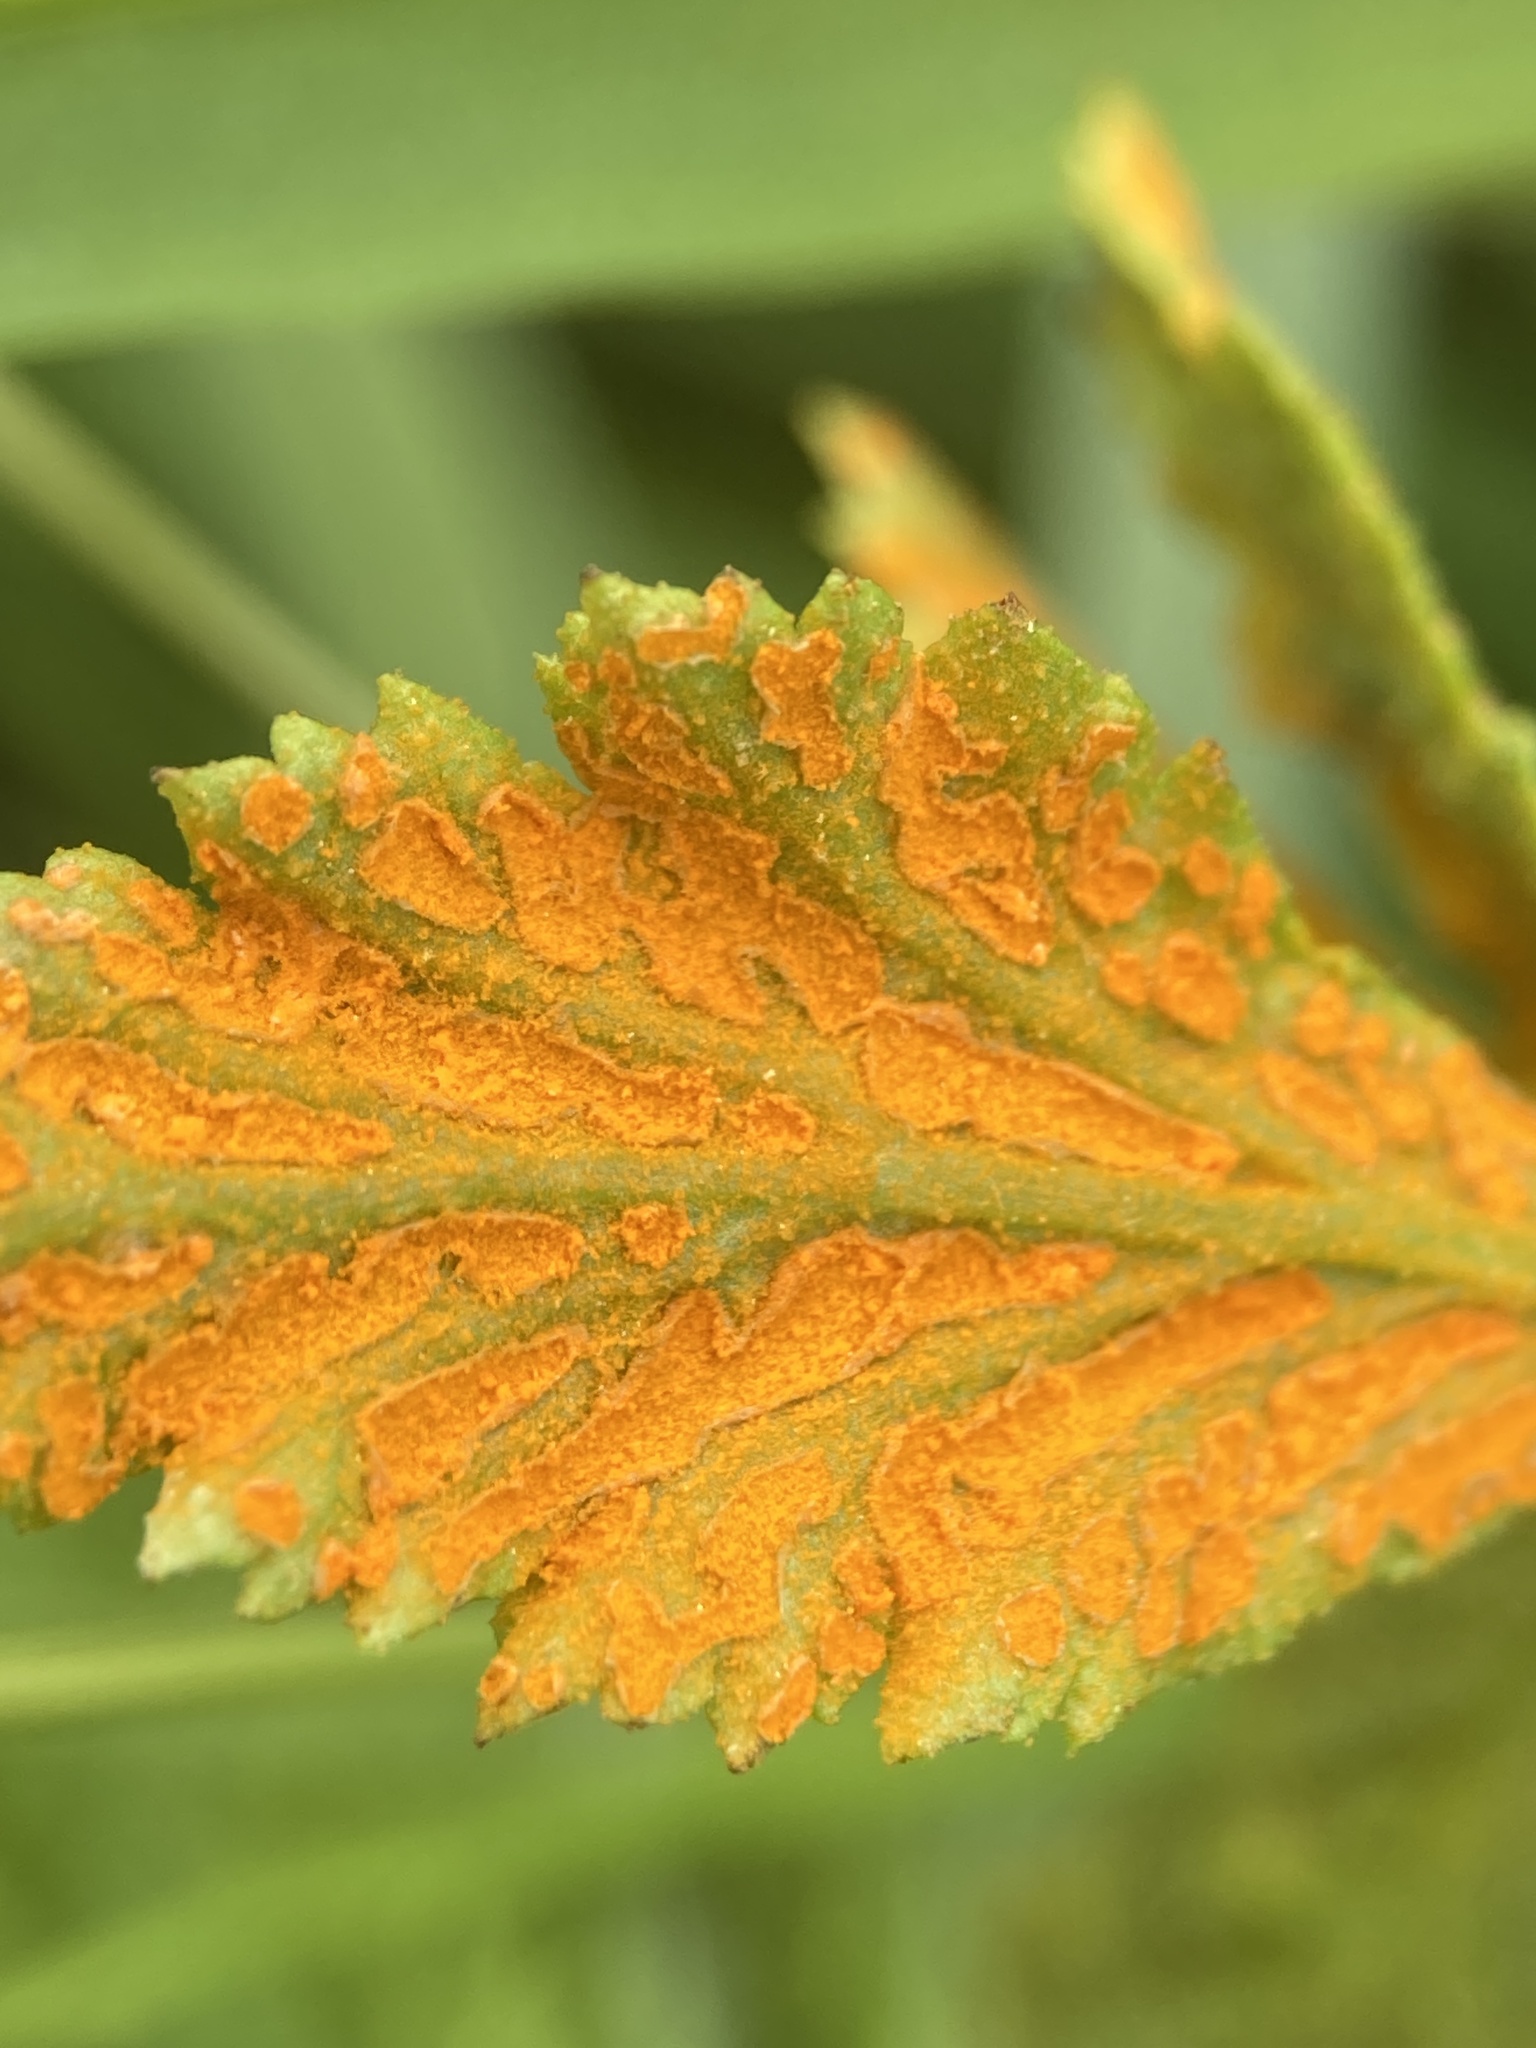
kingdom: Fungi
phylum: Basidiomycota
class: Pucciniomycetes
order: Pucciniales
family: Phragmidiaceae
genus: Arthuriomyces
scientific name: Arthuriomyces peckianus
